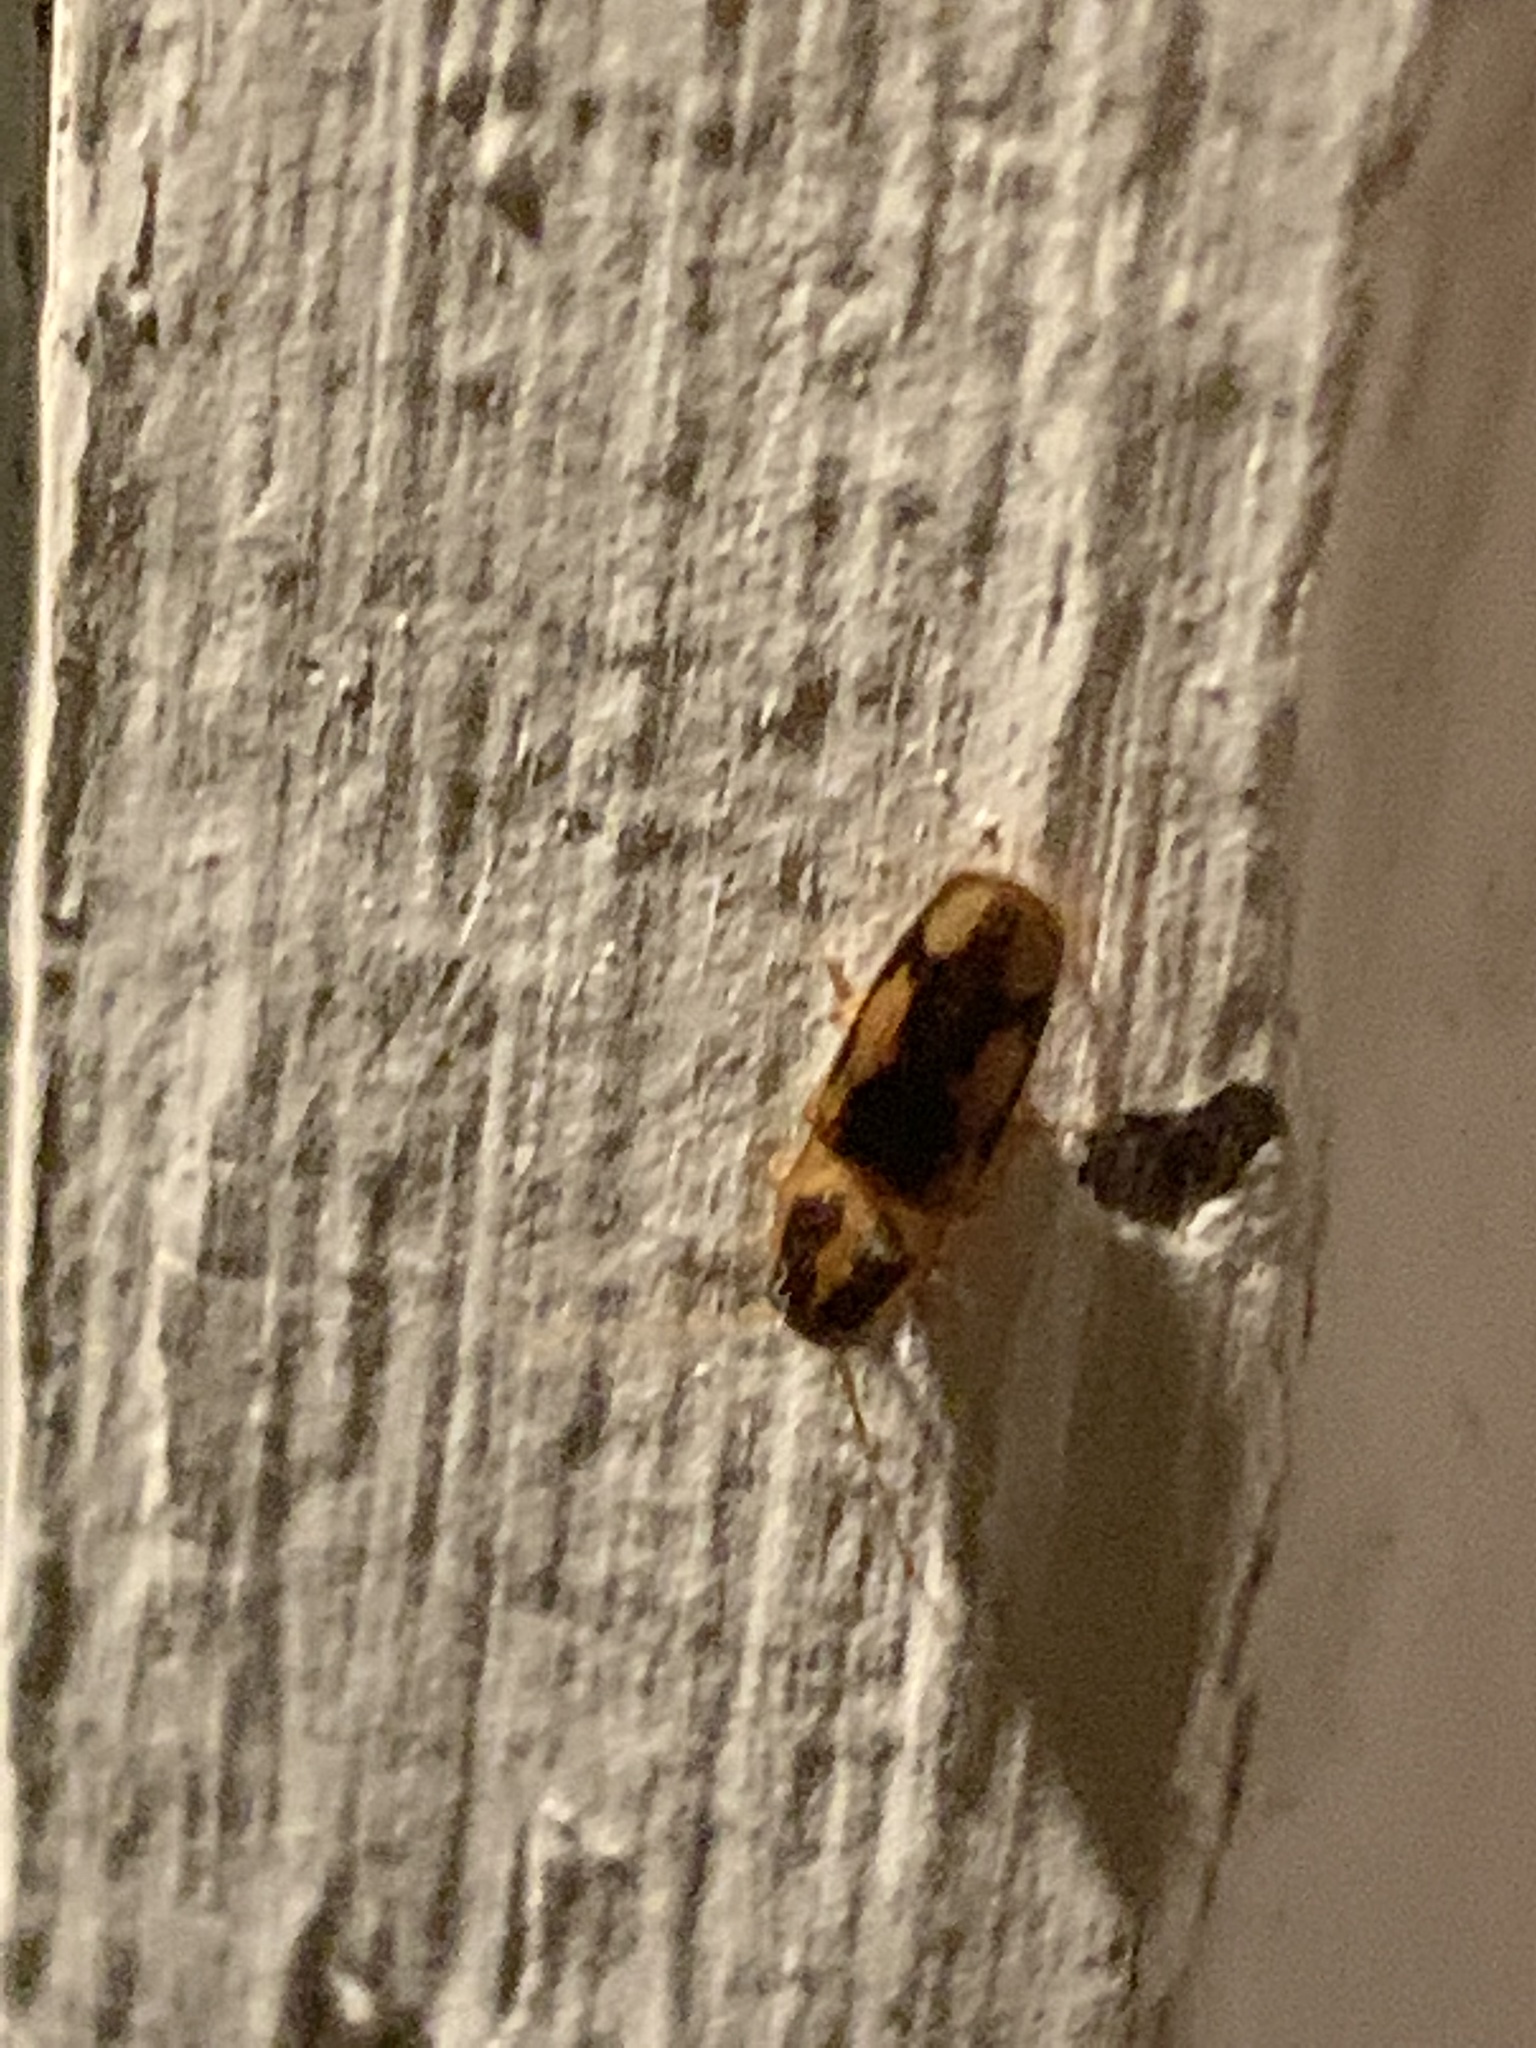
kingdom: Animalia
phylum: Arthropoda
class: Insecta
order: Coleoptera
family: Elateridae
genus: Monocrepidius
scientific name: Monocrepidius
